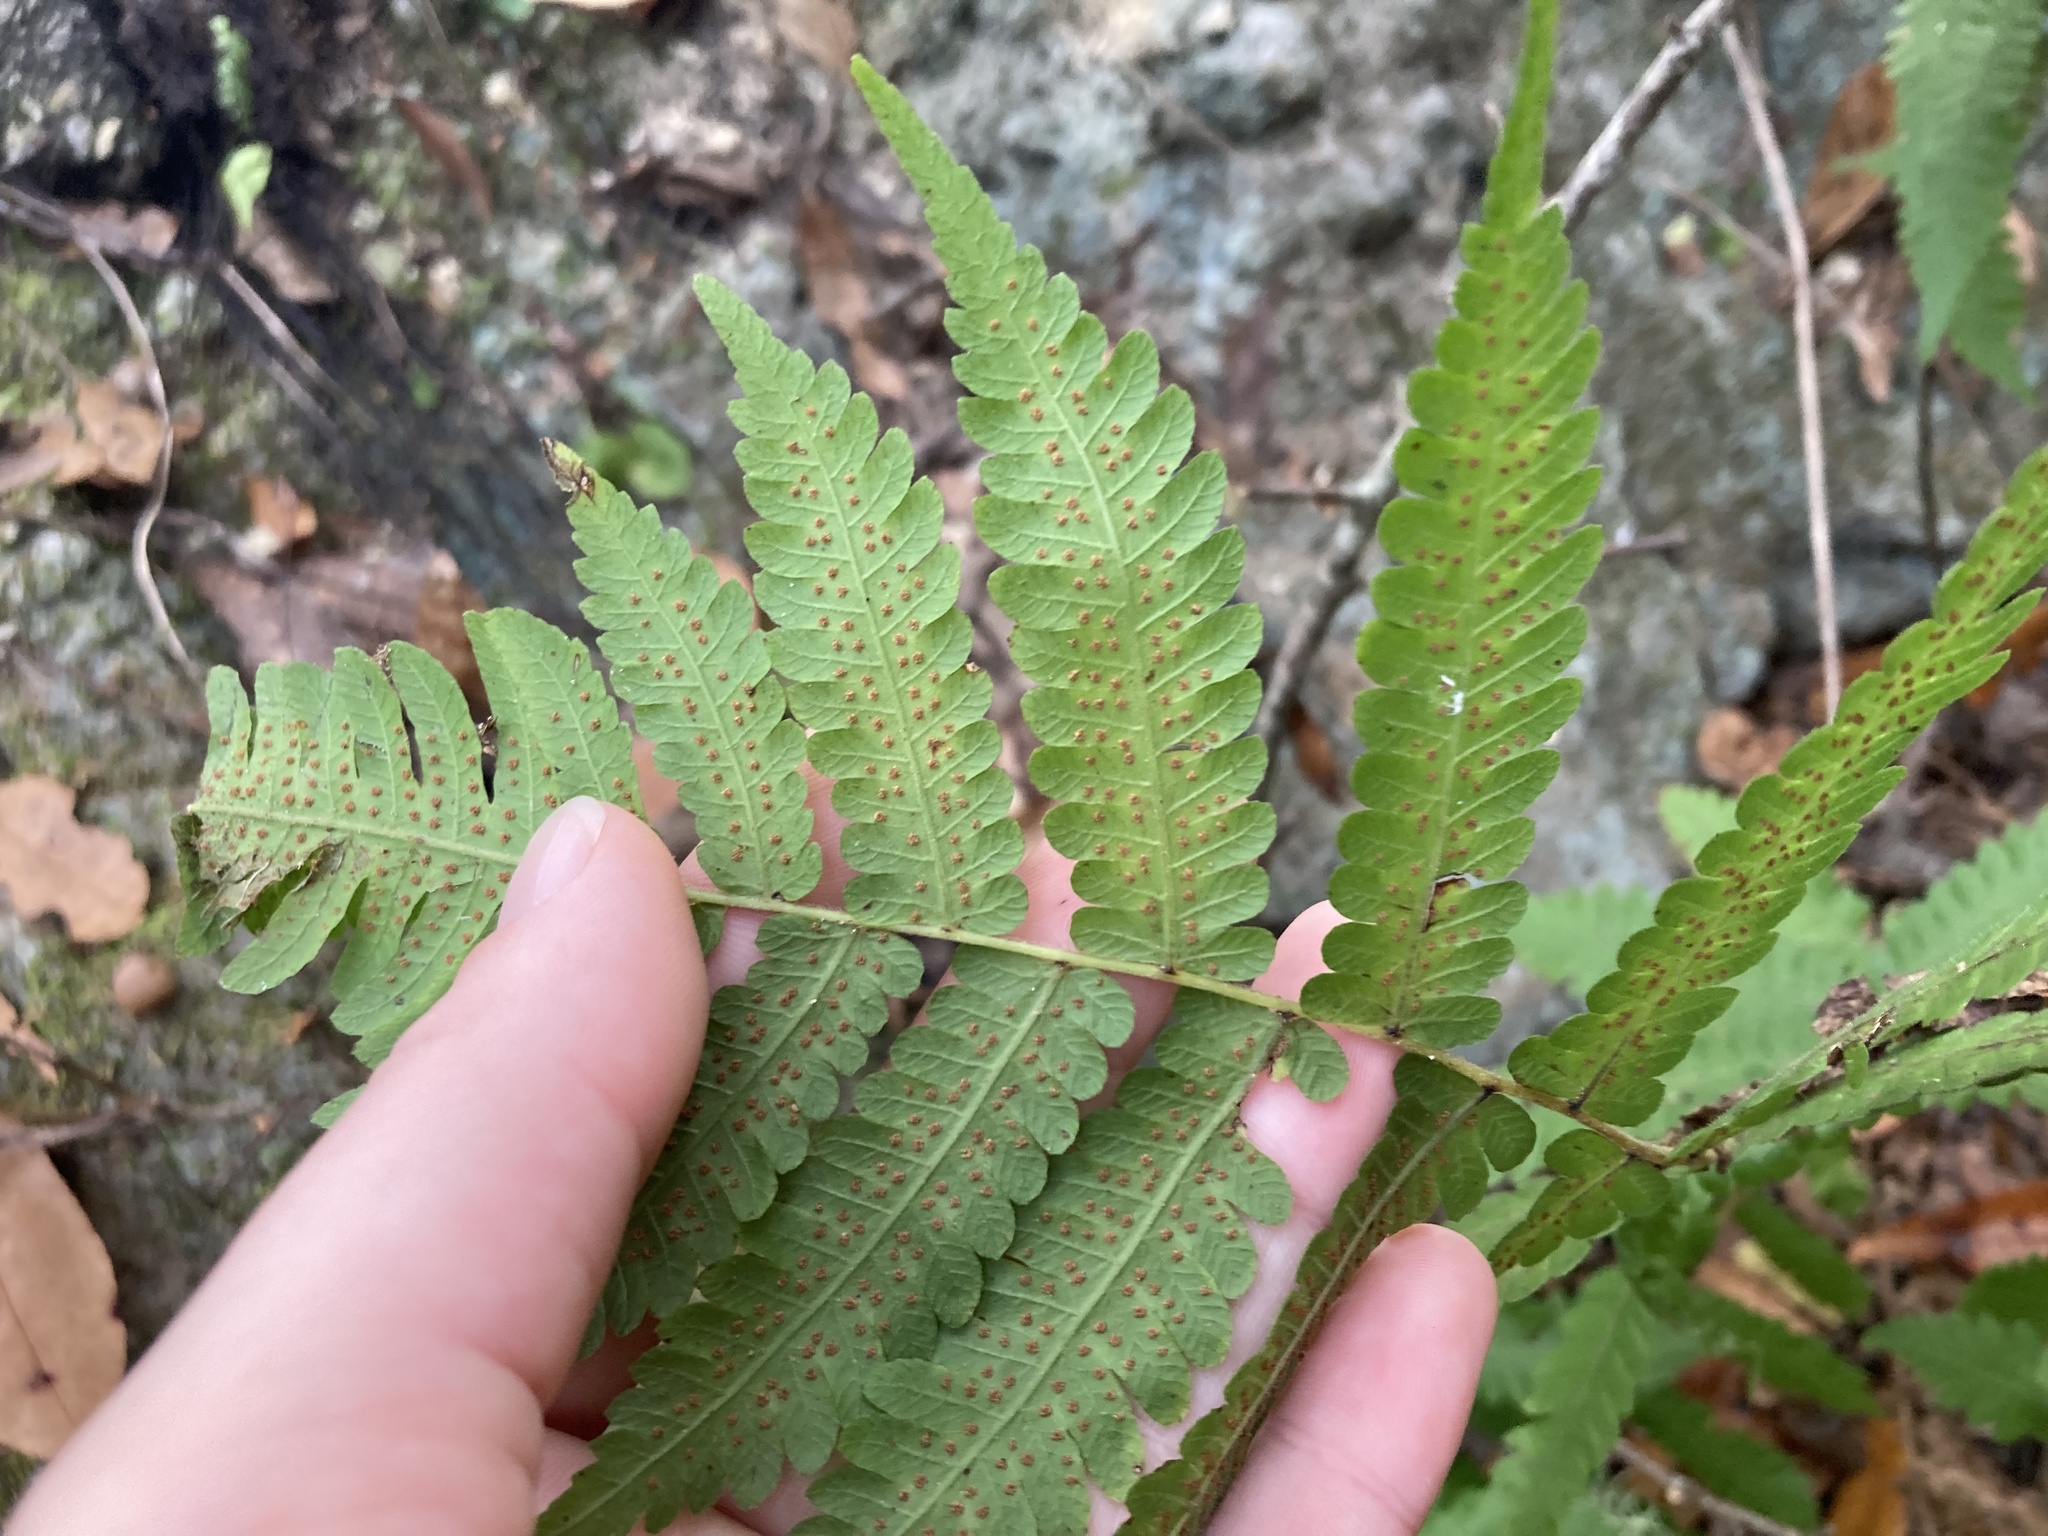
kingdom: Plantae
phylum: Tracheophyta
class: Polypodiopsida
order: Polypodiales
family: Thelypteridaceae
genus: Christella
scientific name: Christella dentata
